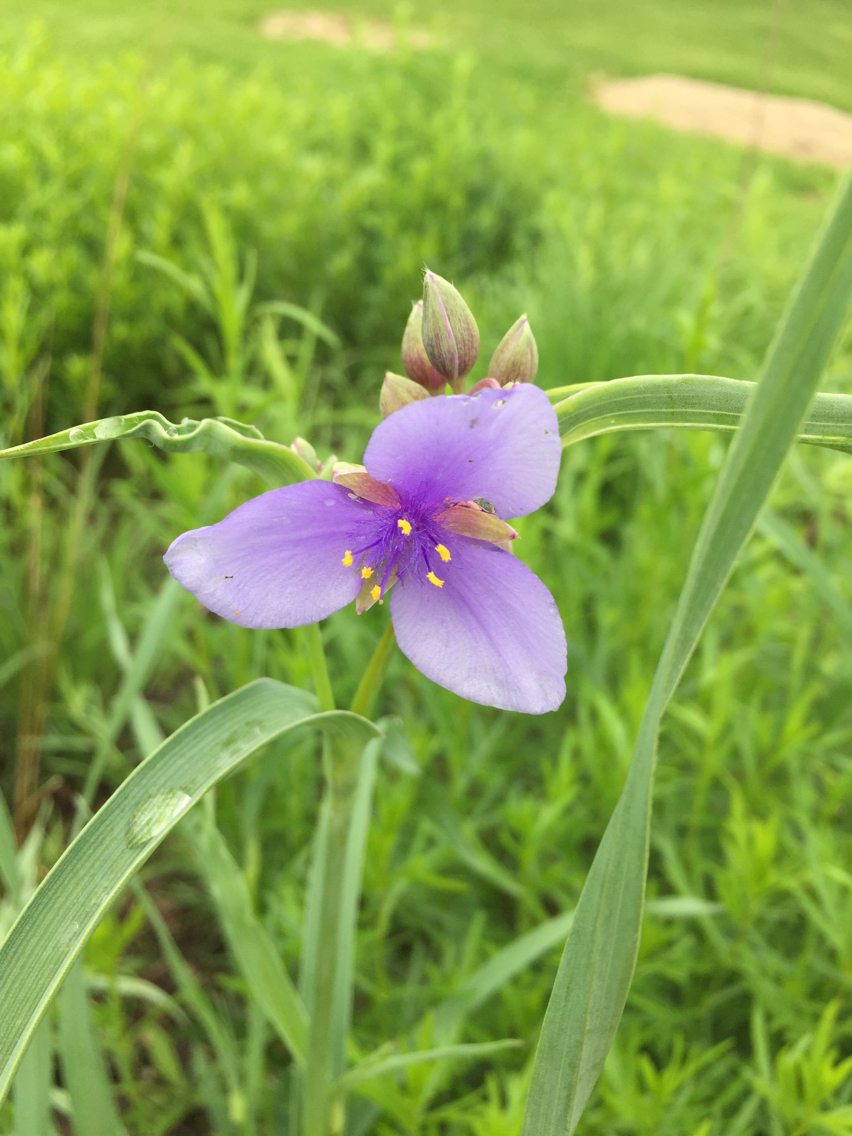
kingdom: Plantae
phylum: Tracheophyta
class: Liliopsida
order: Commelinales
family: Commelinaceae
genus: Tradescantia
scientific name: Tradescantia ohiensis
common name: Ohio spiderwort
